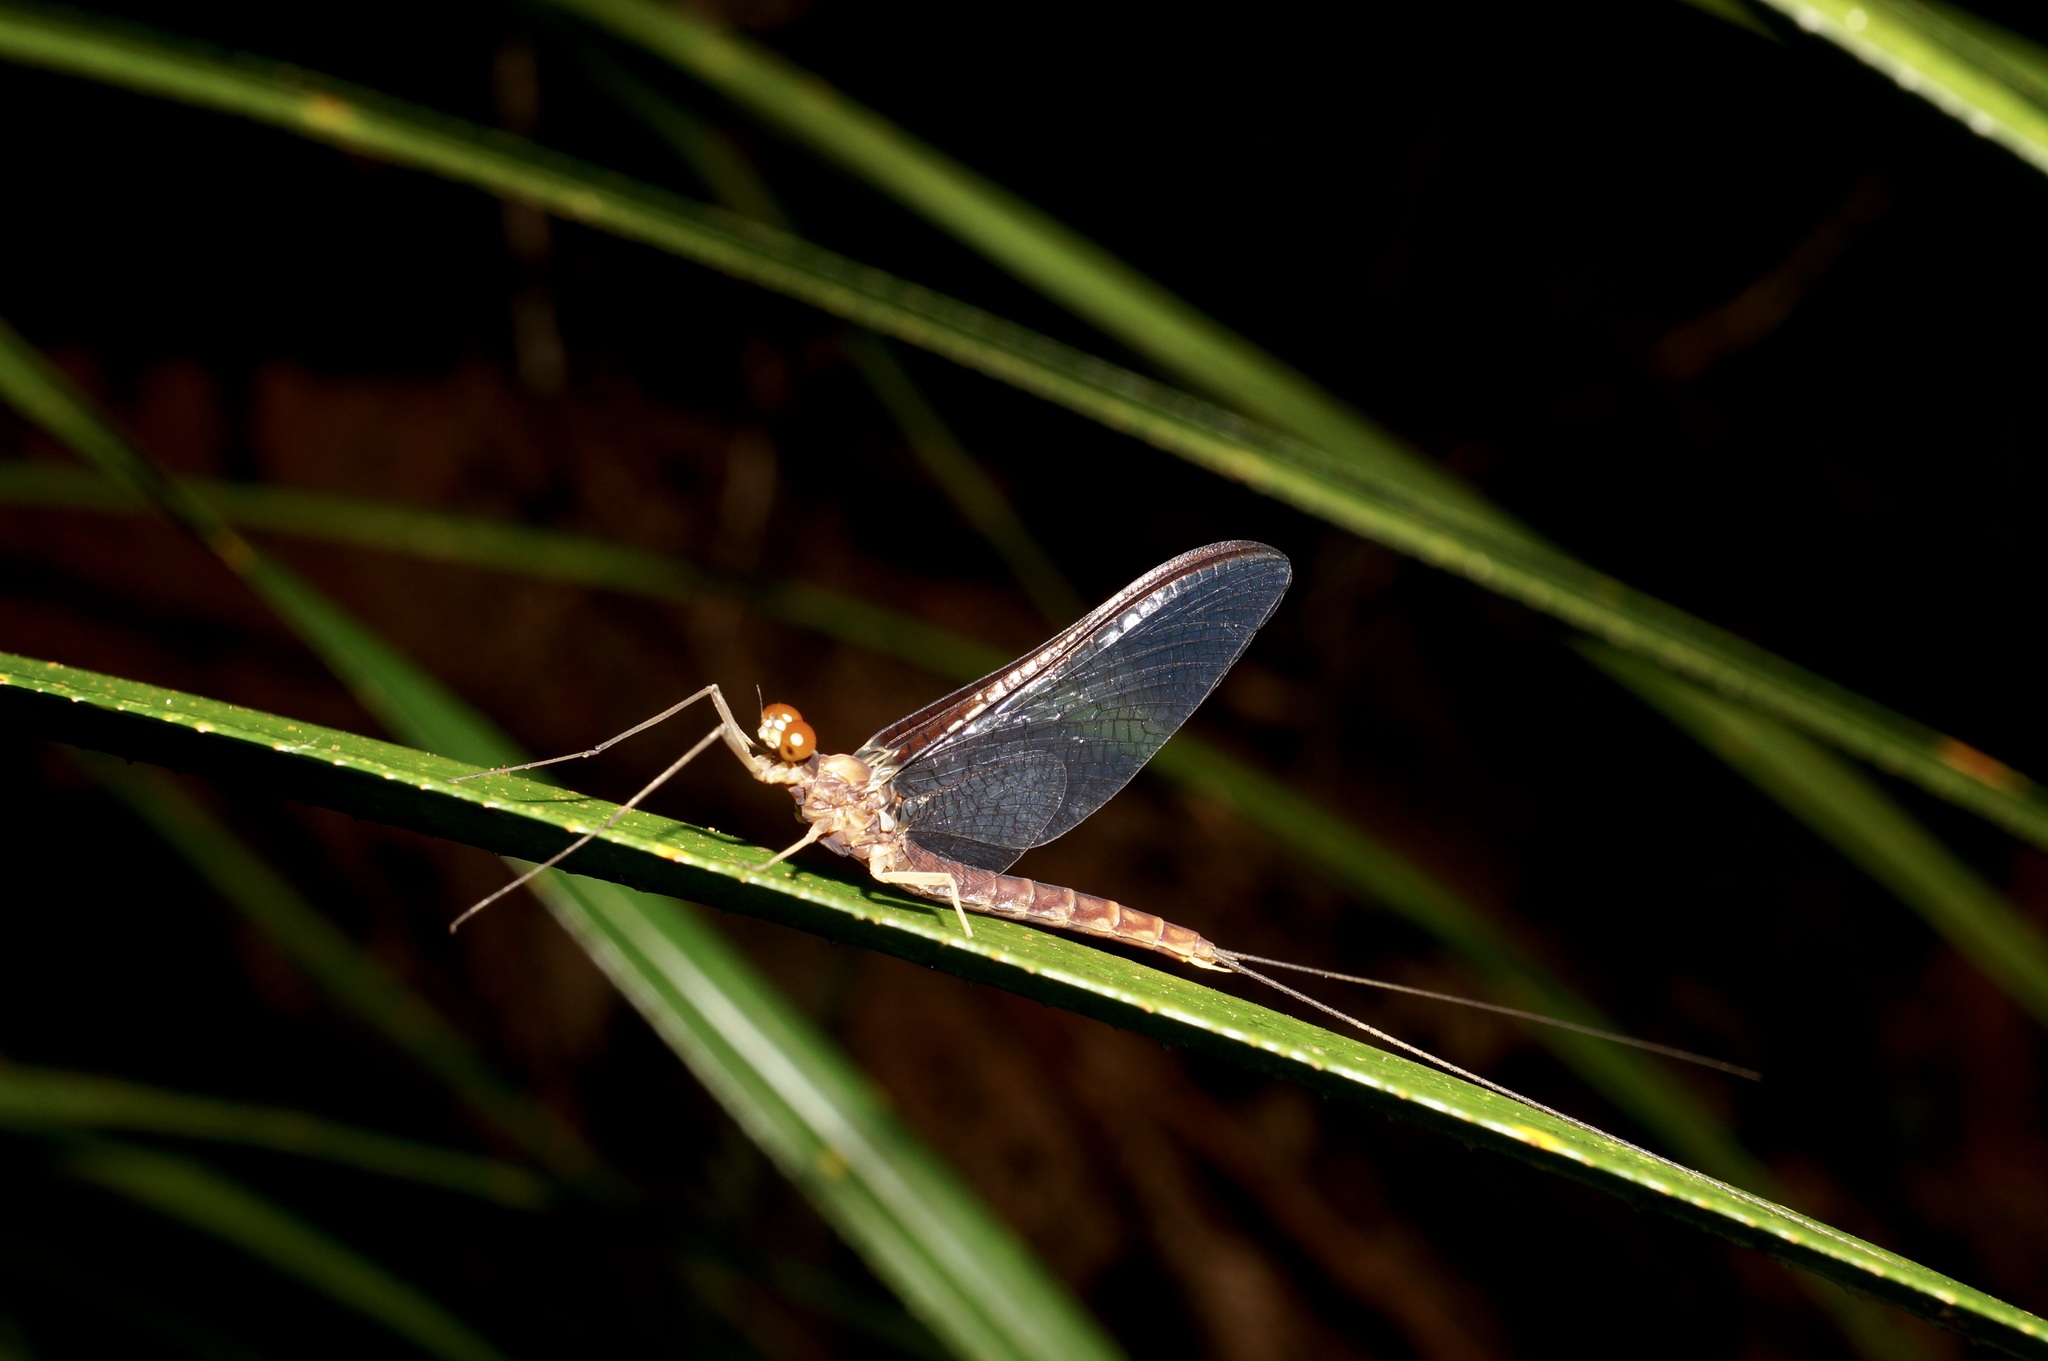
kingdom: Animalia
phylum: Arthropoda
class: Insecta
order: Ephemeroptera
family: Ichthybotidae
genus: Ichthybotus
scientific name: Ichthybotus hudsoni
